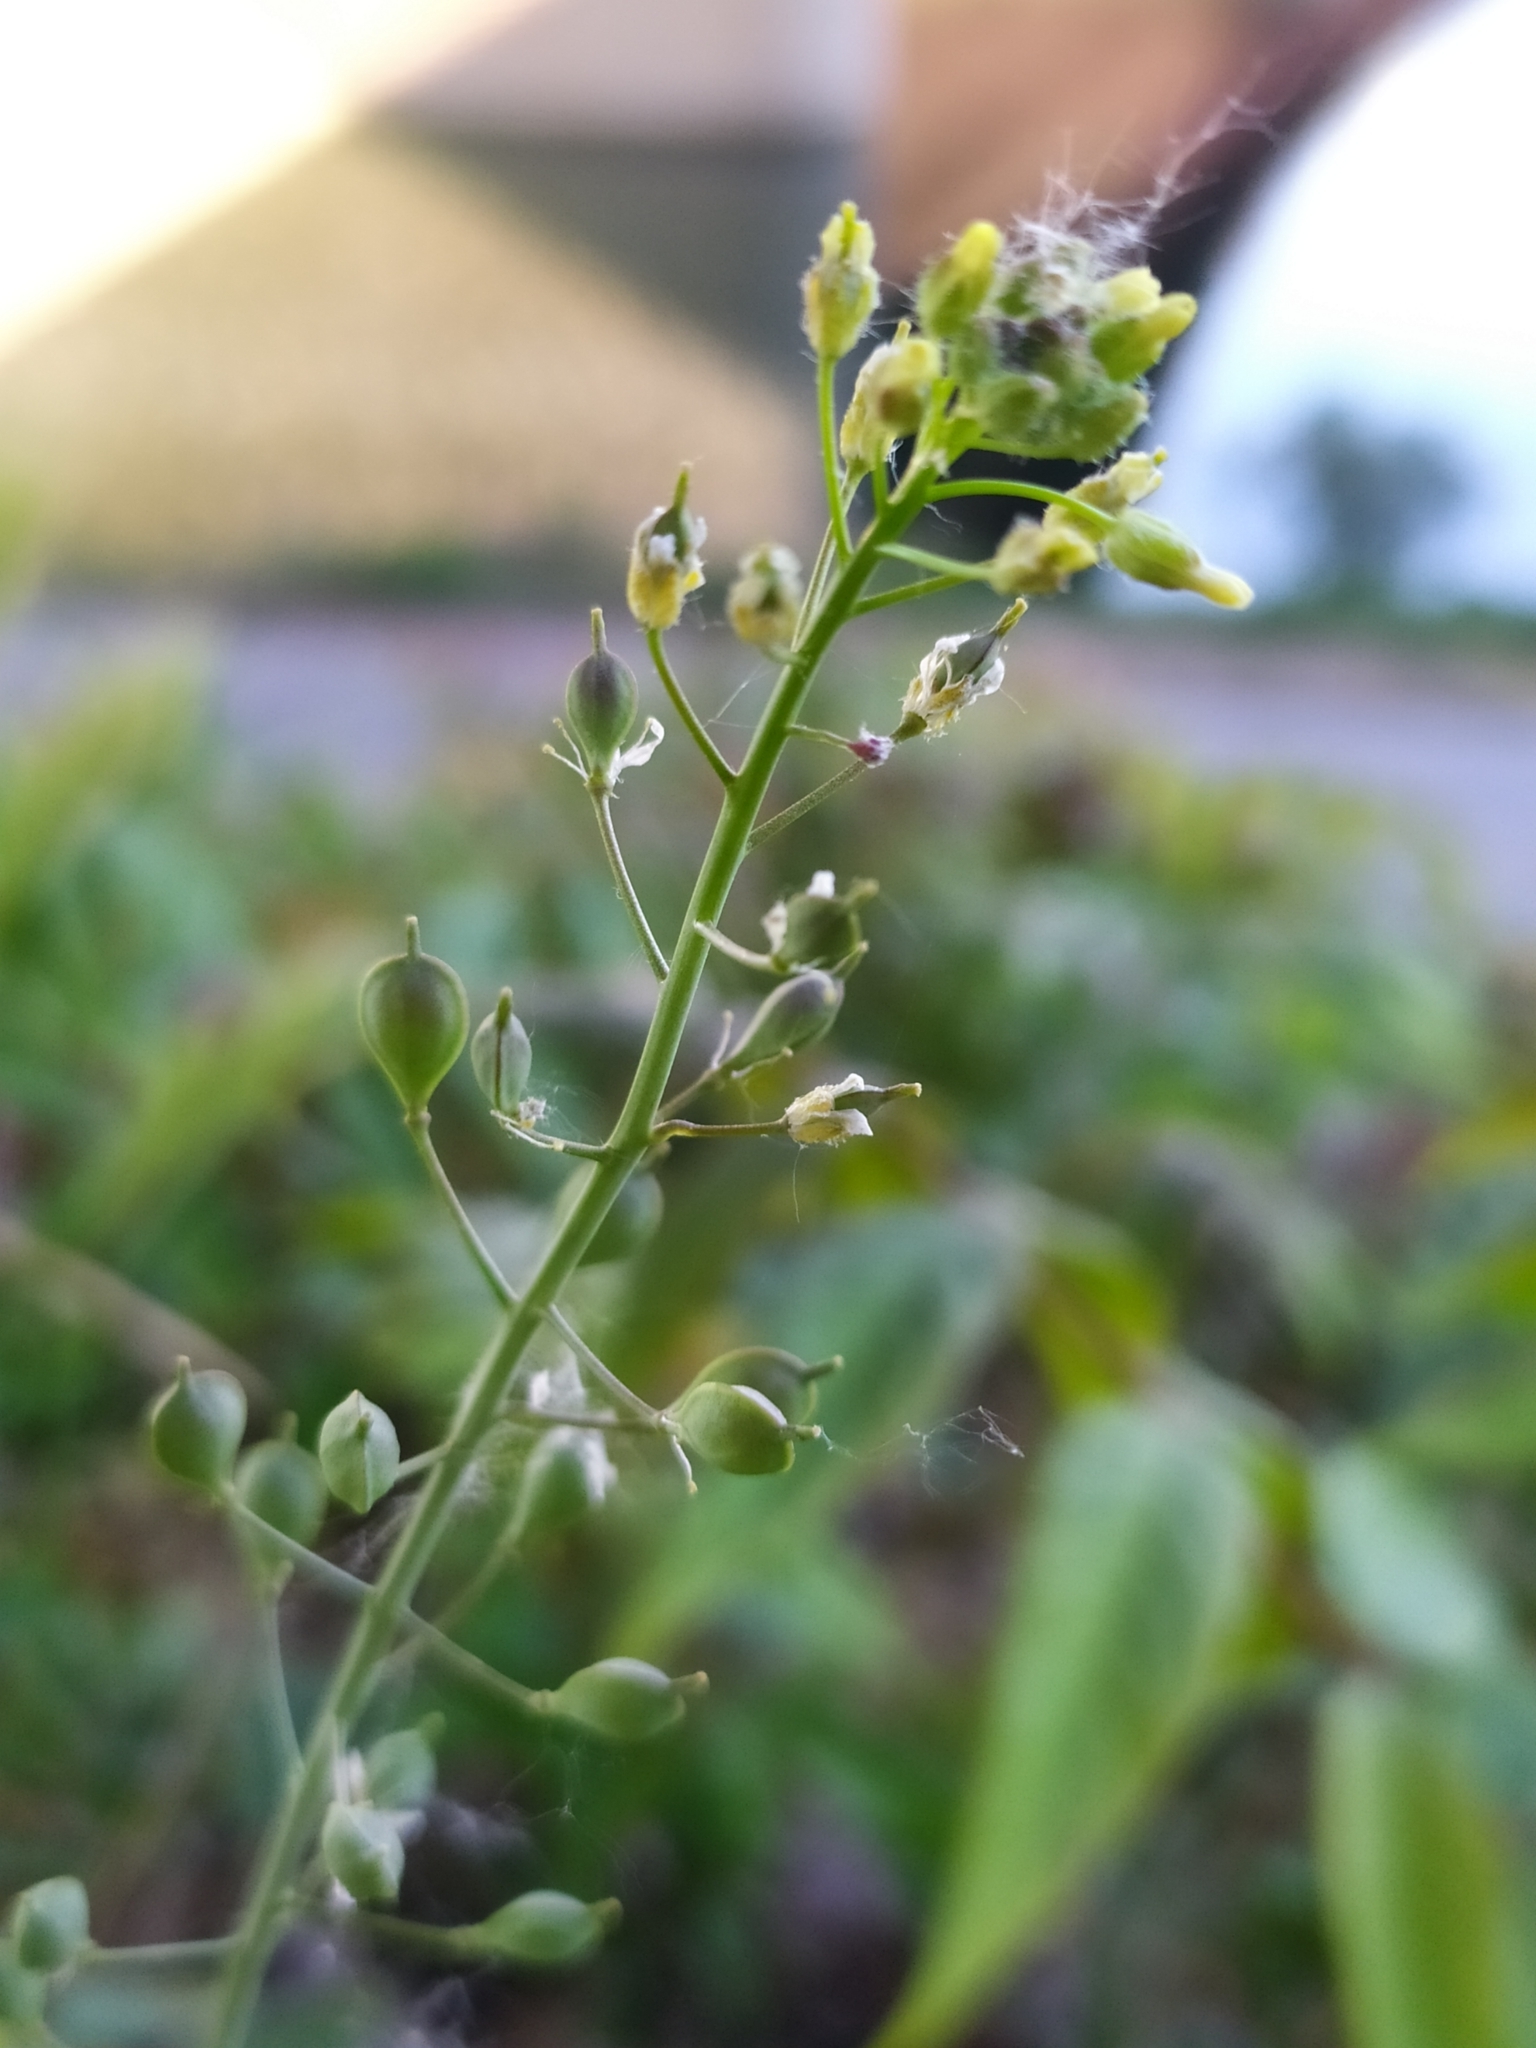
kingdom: Plantae
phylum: Tracheophyta
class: Magnoliopsida
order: Brassicales
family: Brassicaceae
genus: Camelina
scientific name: Camelina microcarpa
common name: Lesser gold-of-pleasure
